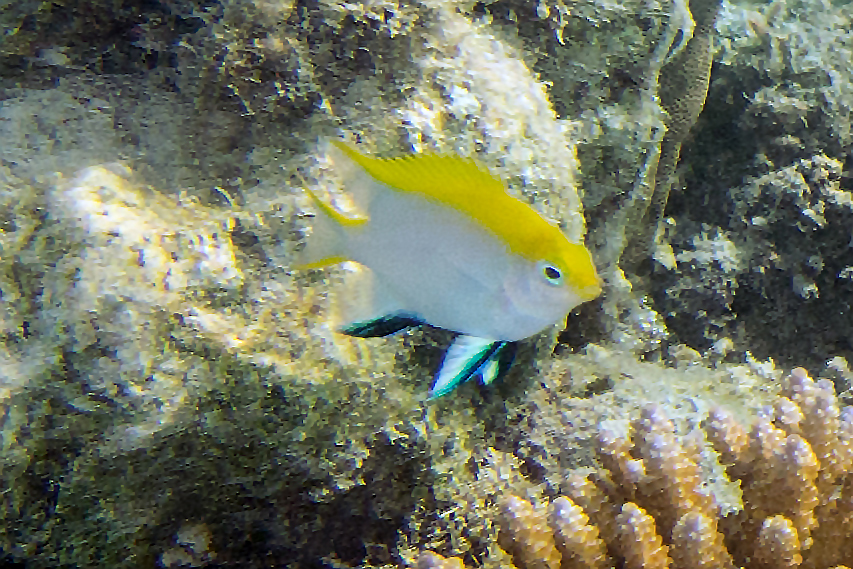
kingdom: Animalia
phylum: Chordata
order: Perciformes
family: Pomacentridae
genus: Neoglyphidodon
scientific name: Neoglyphidodon melas
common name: Black damsel
